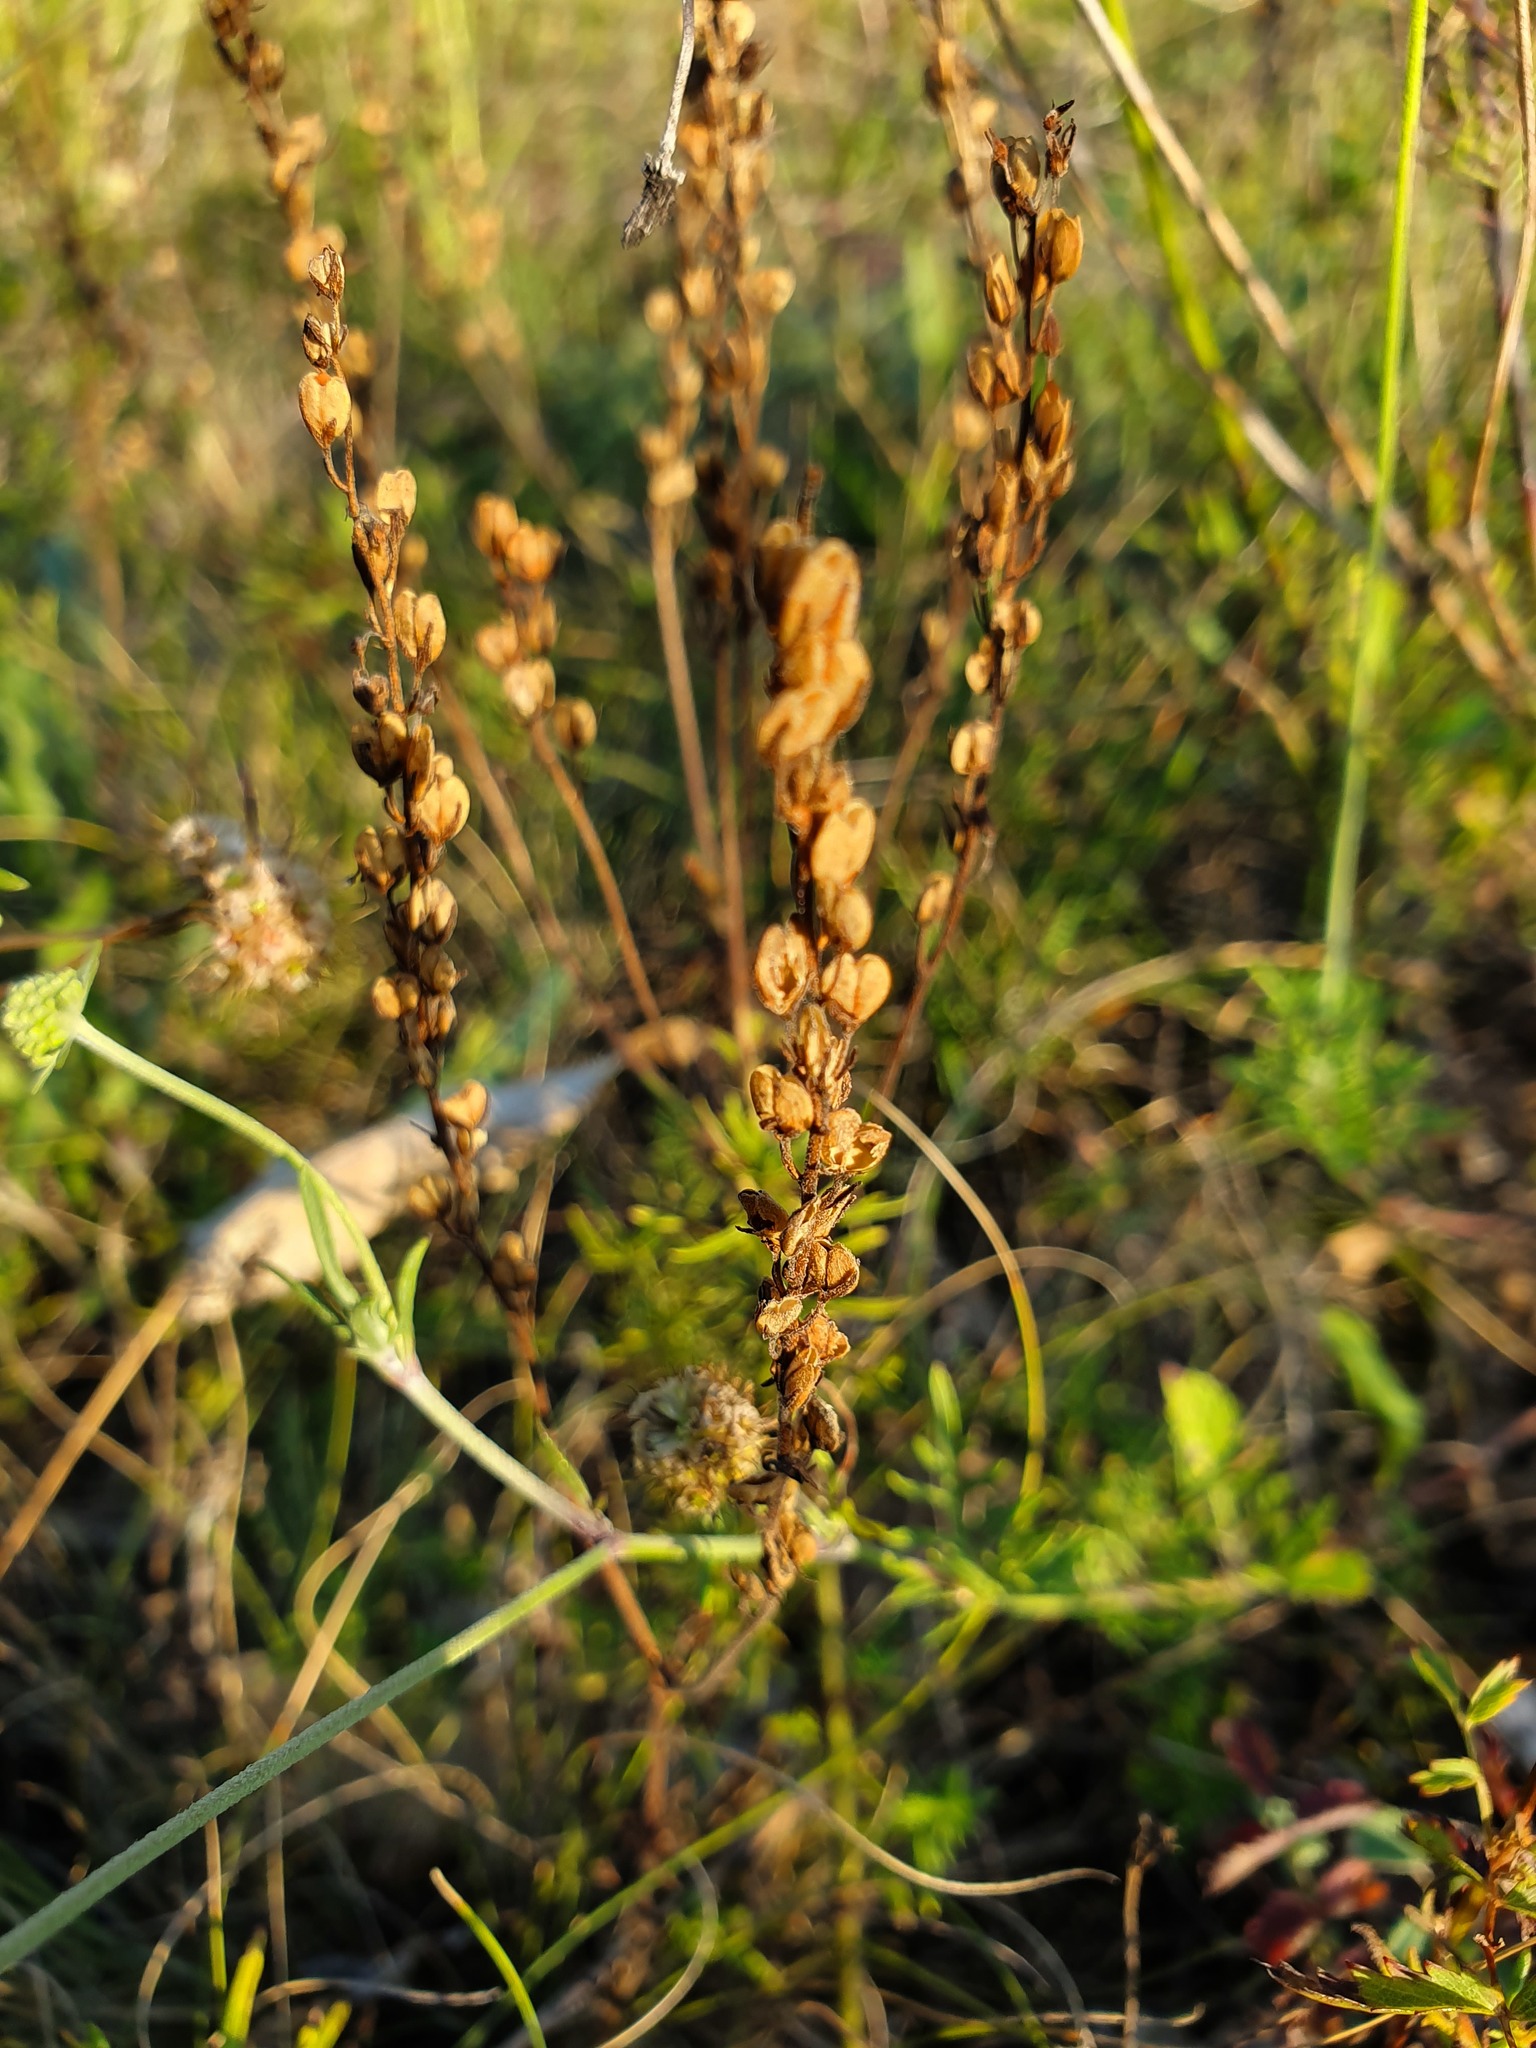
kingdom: Plantae
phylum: Tracheophyta
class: Magnoliopsida
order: Lamiales
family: Plantaginaceae
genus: Veronica
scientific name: Veronica austriaca
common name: Large speedwell
